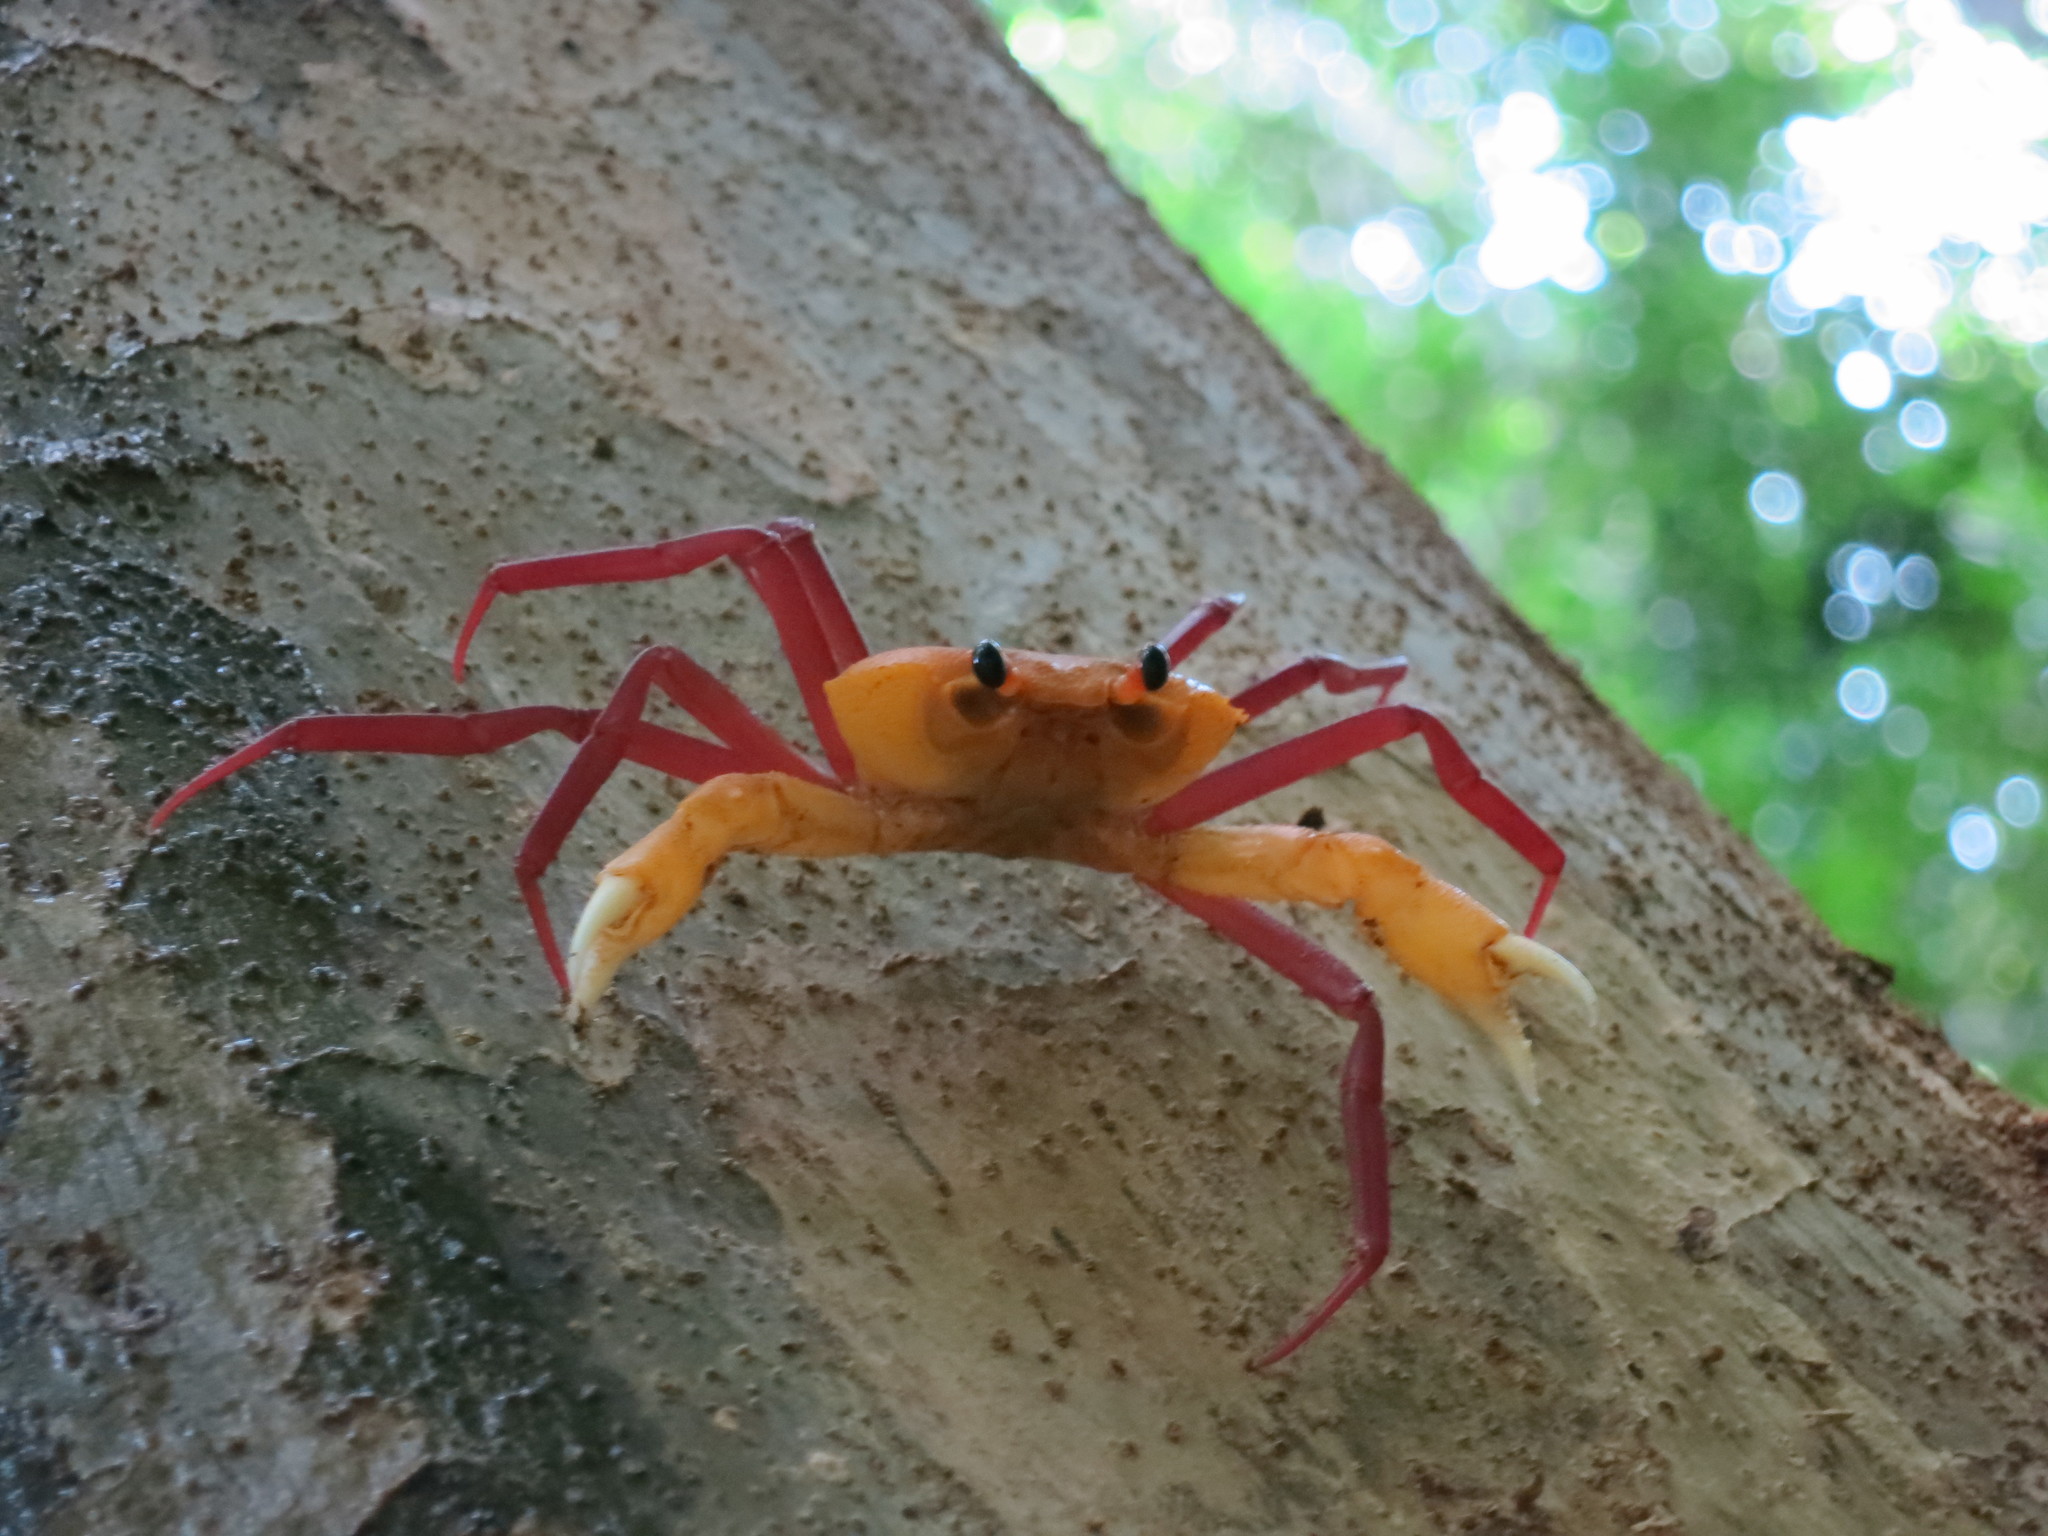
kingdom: Animalia
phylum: Arthropoda
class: Malacostraca
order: Decapoda
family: Deckeniidae
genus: Madagapotamon
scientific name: Madagapotamon humberti
